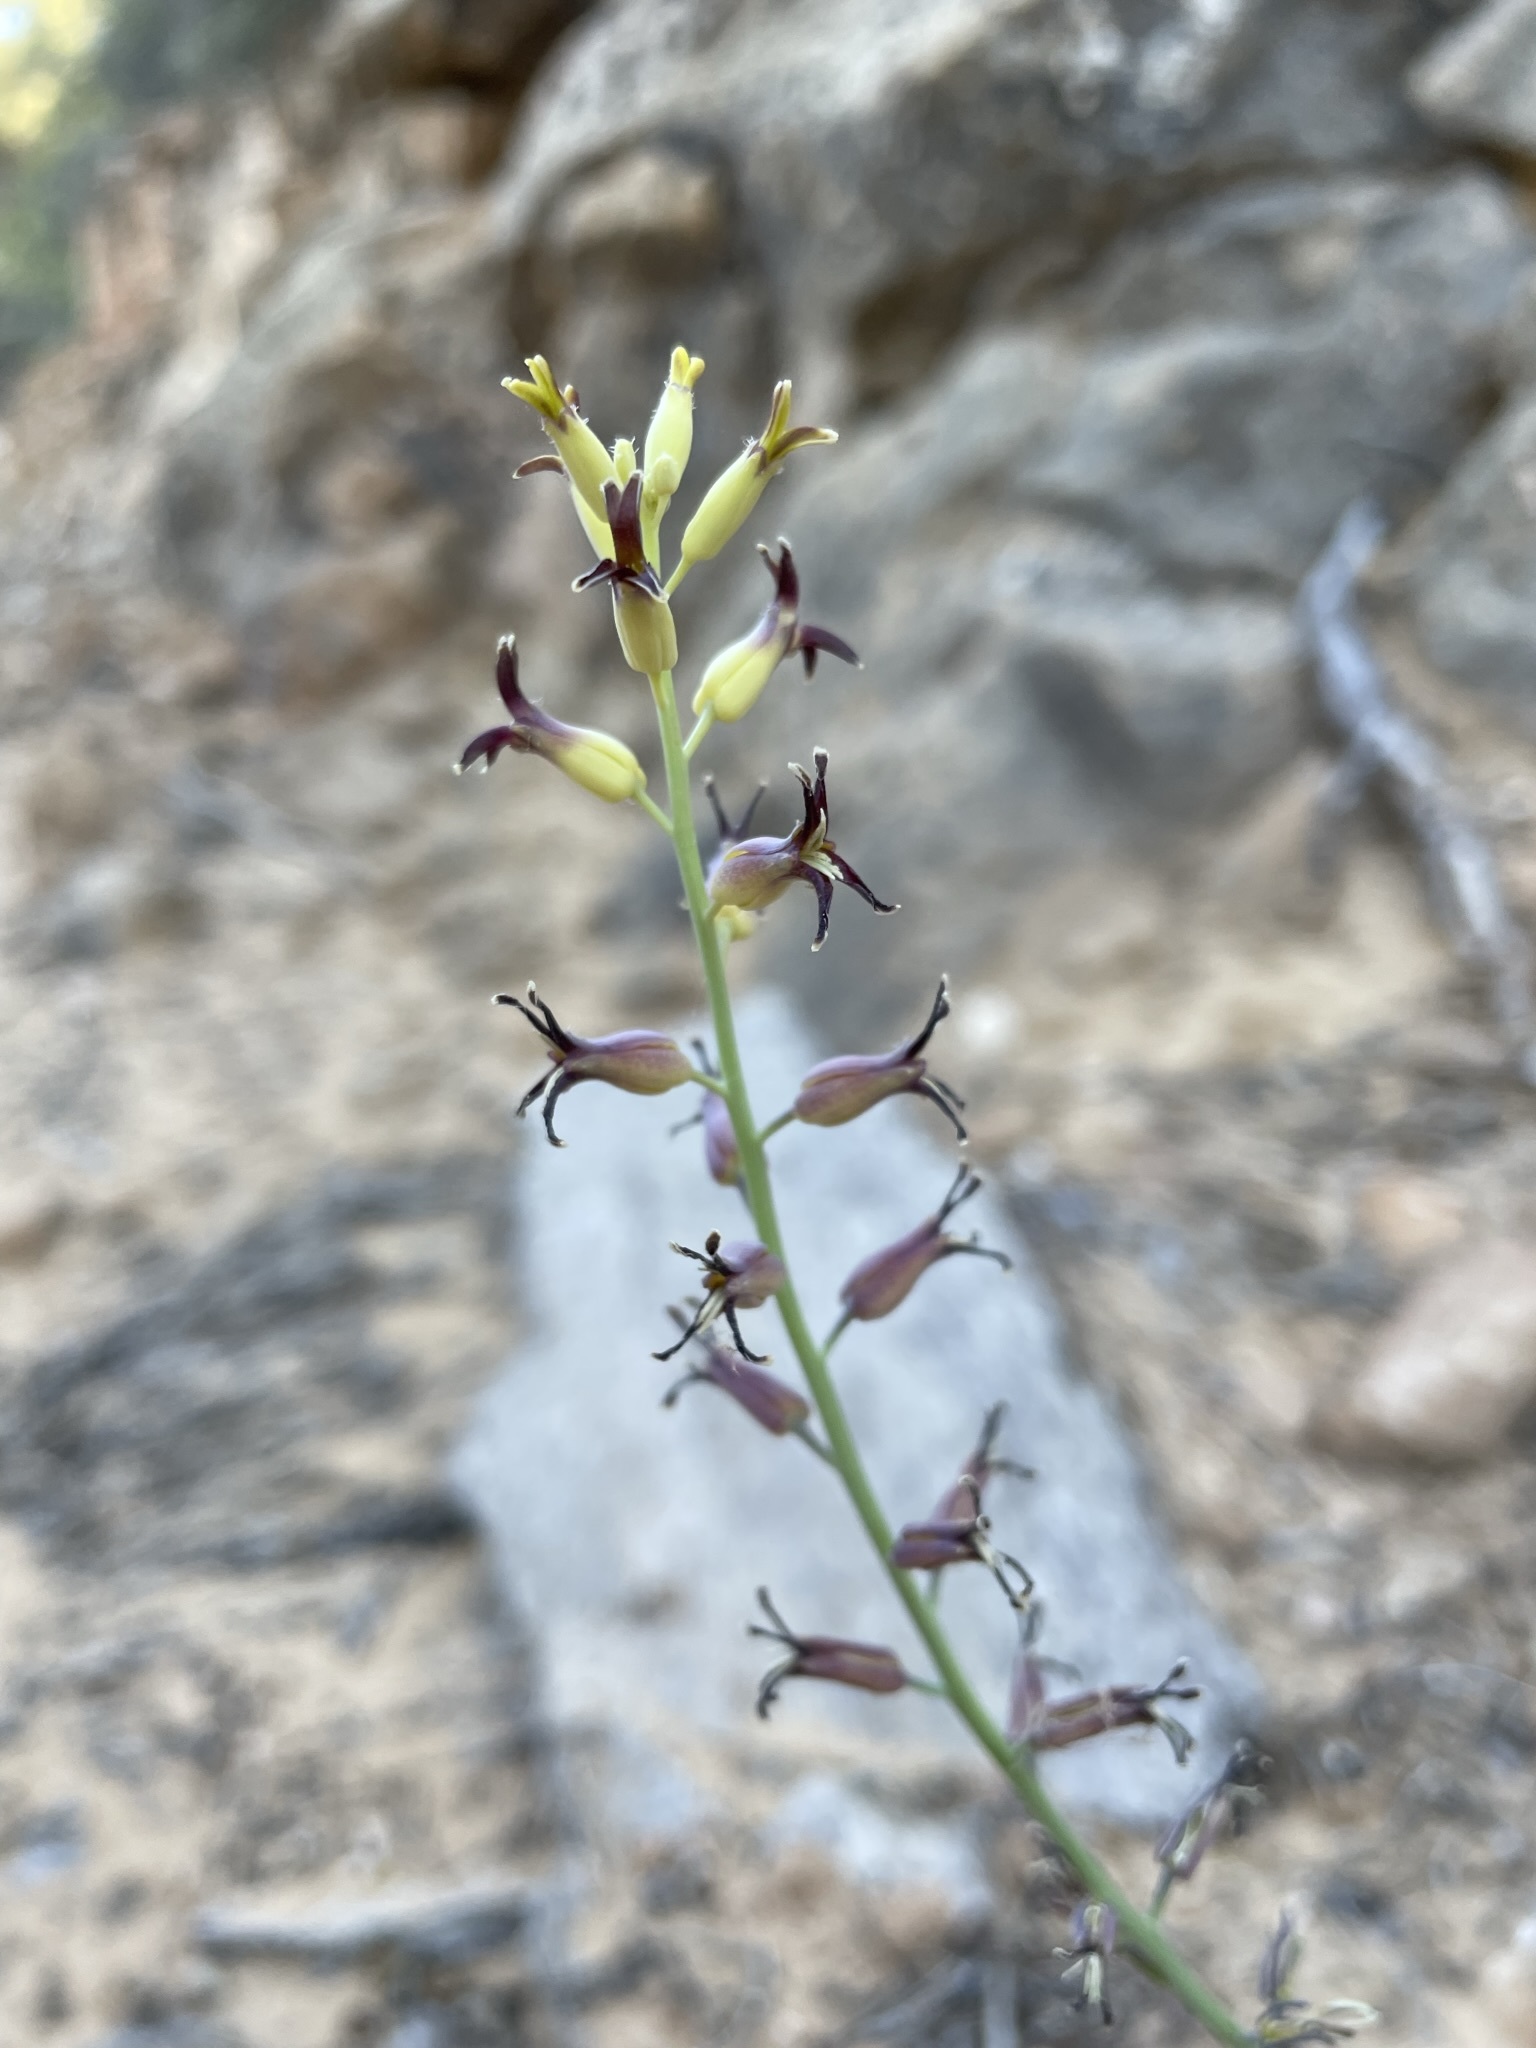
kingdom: Plantae
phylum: Tracheophyta
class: Magnoliopsida
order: Brassicales
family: Brassicaceae
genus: Streptanthus
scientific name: Streptanthus cordatus
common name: Heart-leaf jewel-flower
